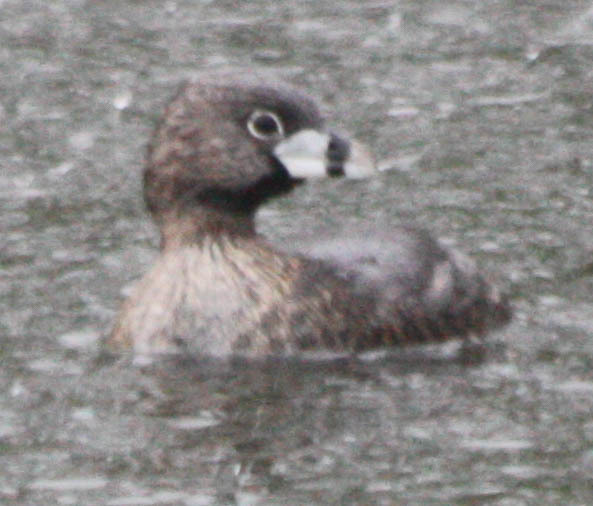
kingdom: Animalia
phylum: Chordata
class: Aves
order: Podicipediformes
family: Podicipedidae
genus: Podilymbus
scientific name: Podilymbus podiceps
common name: Pied-billed grebe
